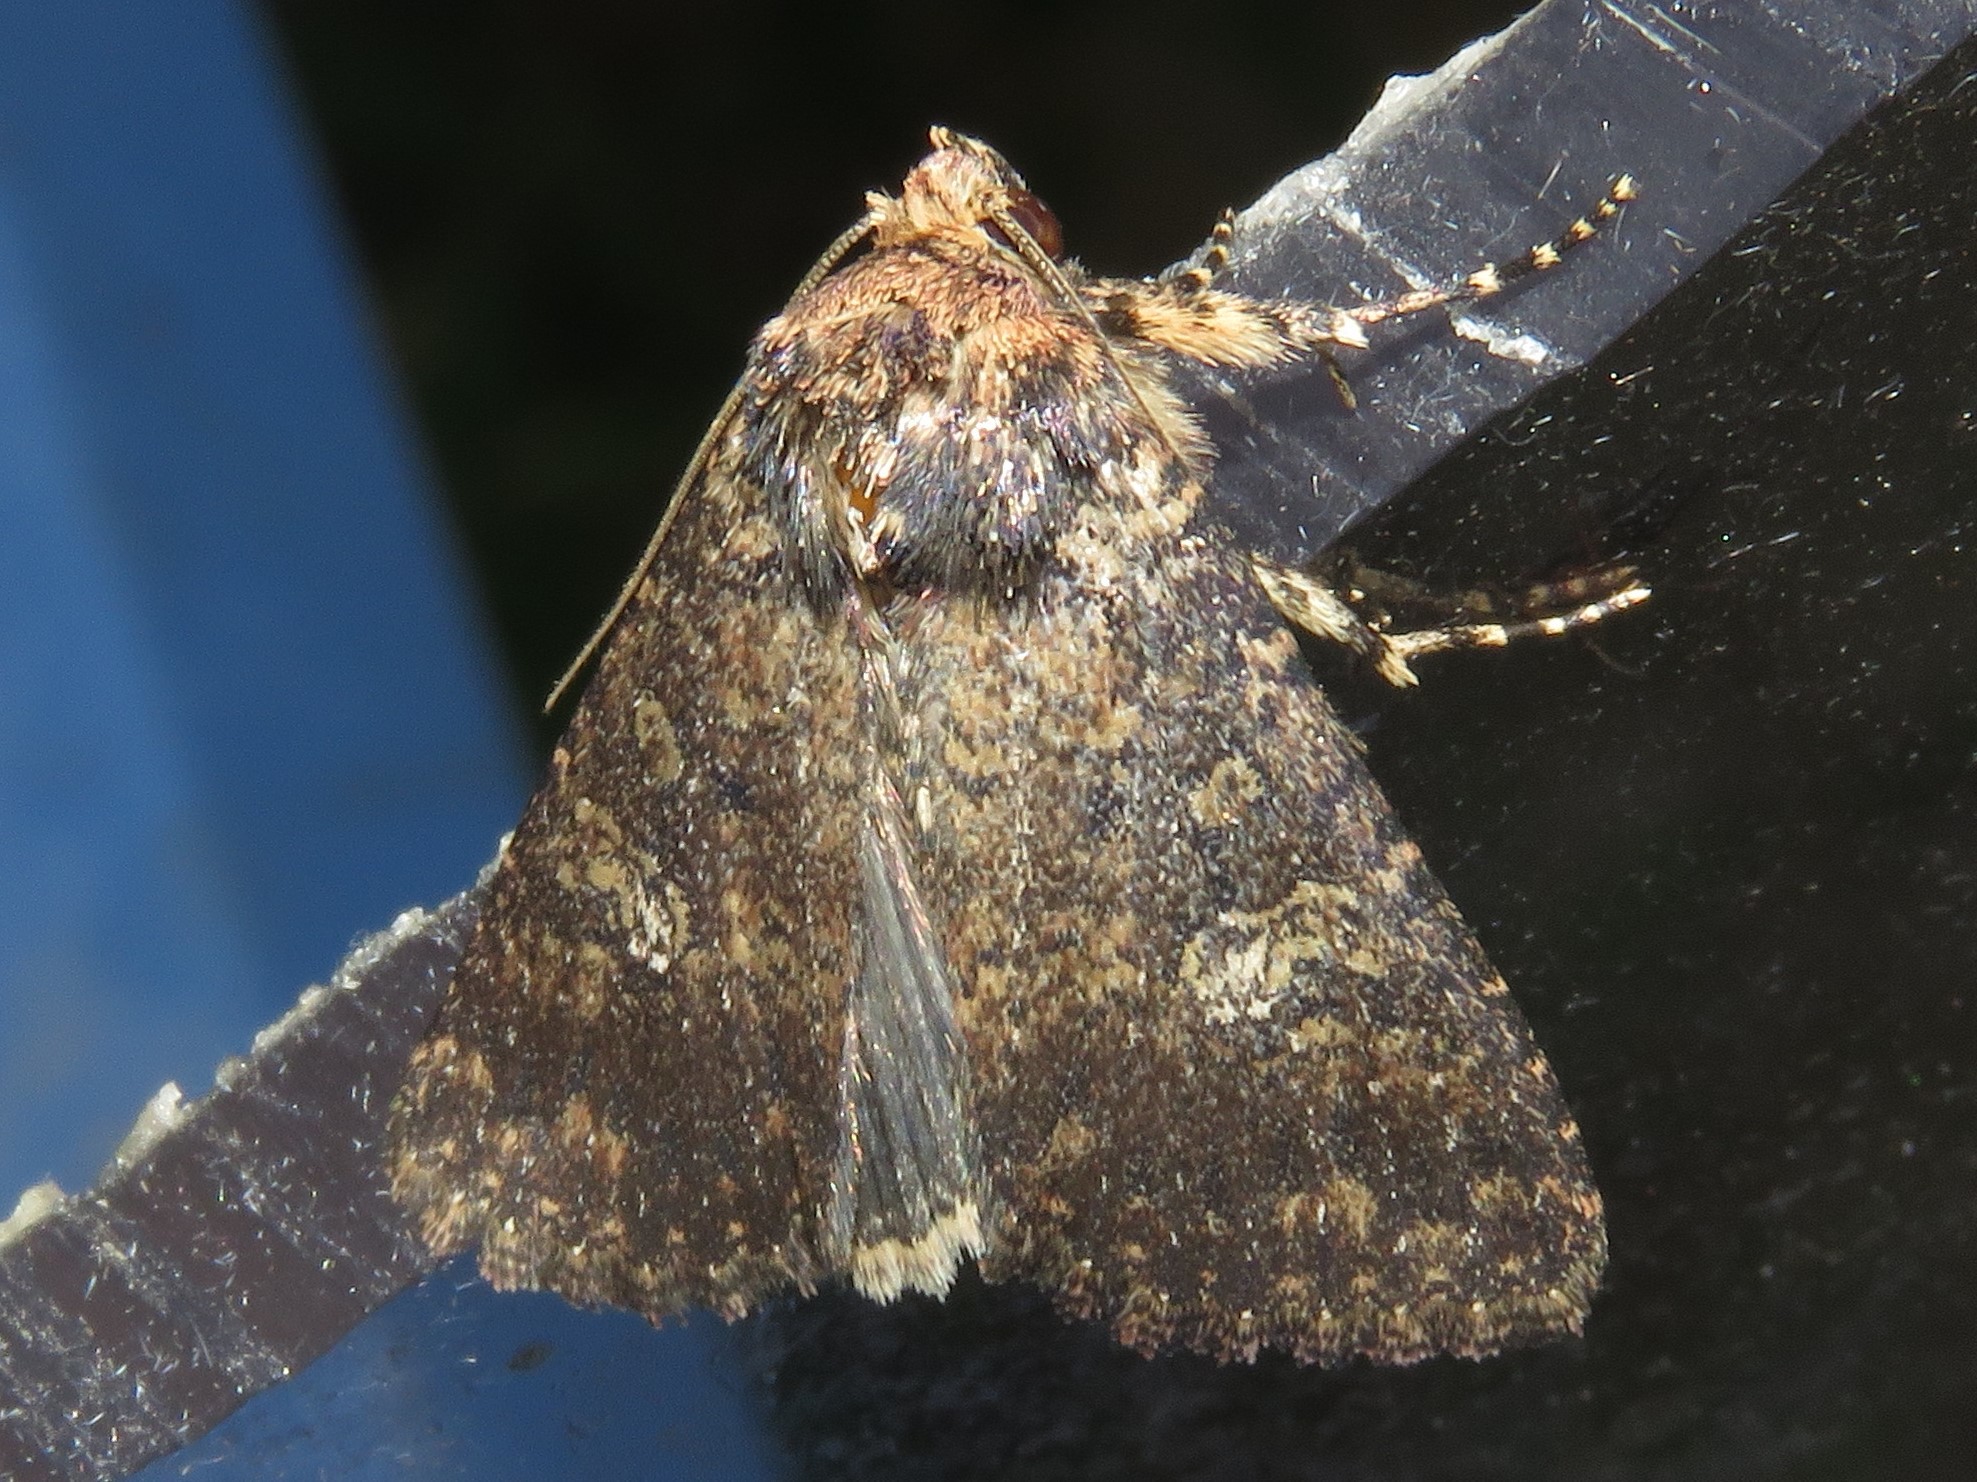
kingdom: Animalia
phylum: Arthropoda
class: Insecta
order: Lepidoptera
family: Noctuidae
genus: Condica
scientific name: Condica vecors
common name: Dusky groundling
